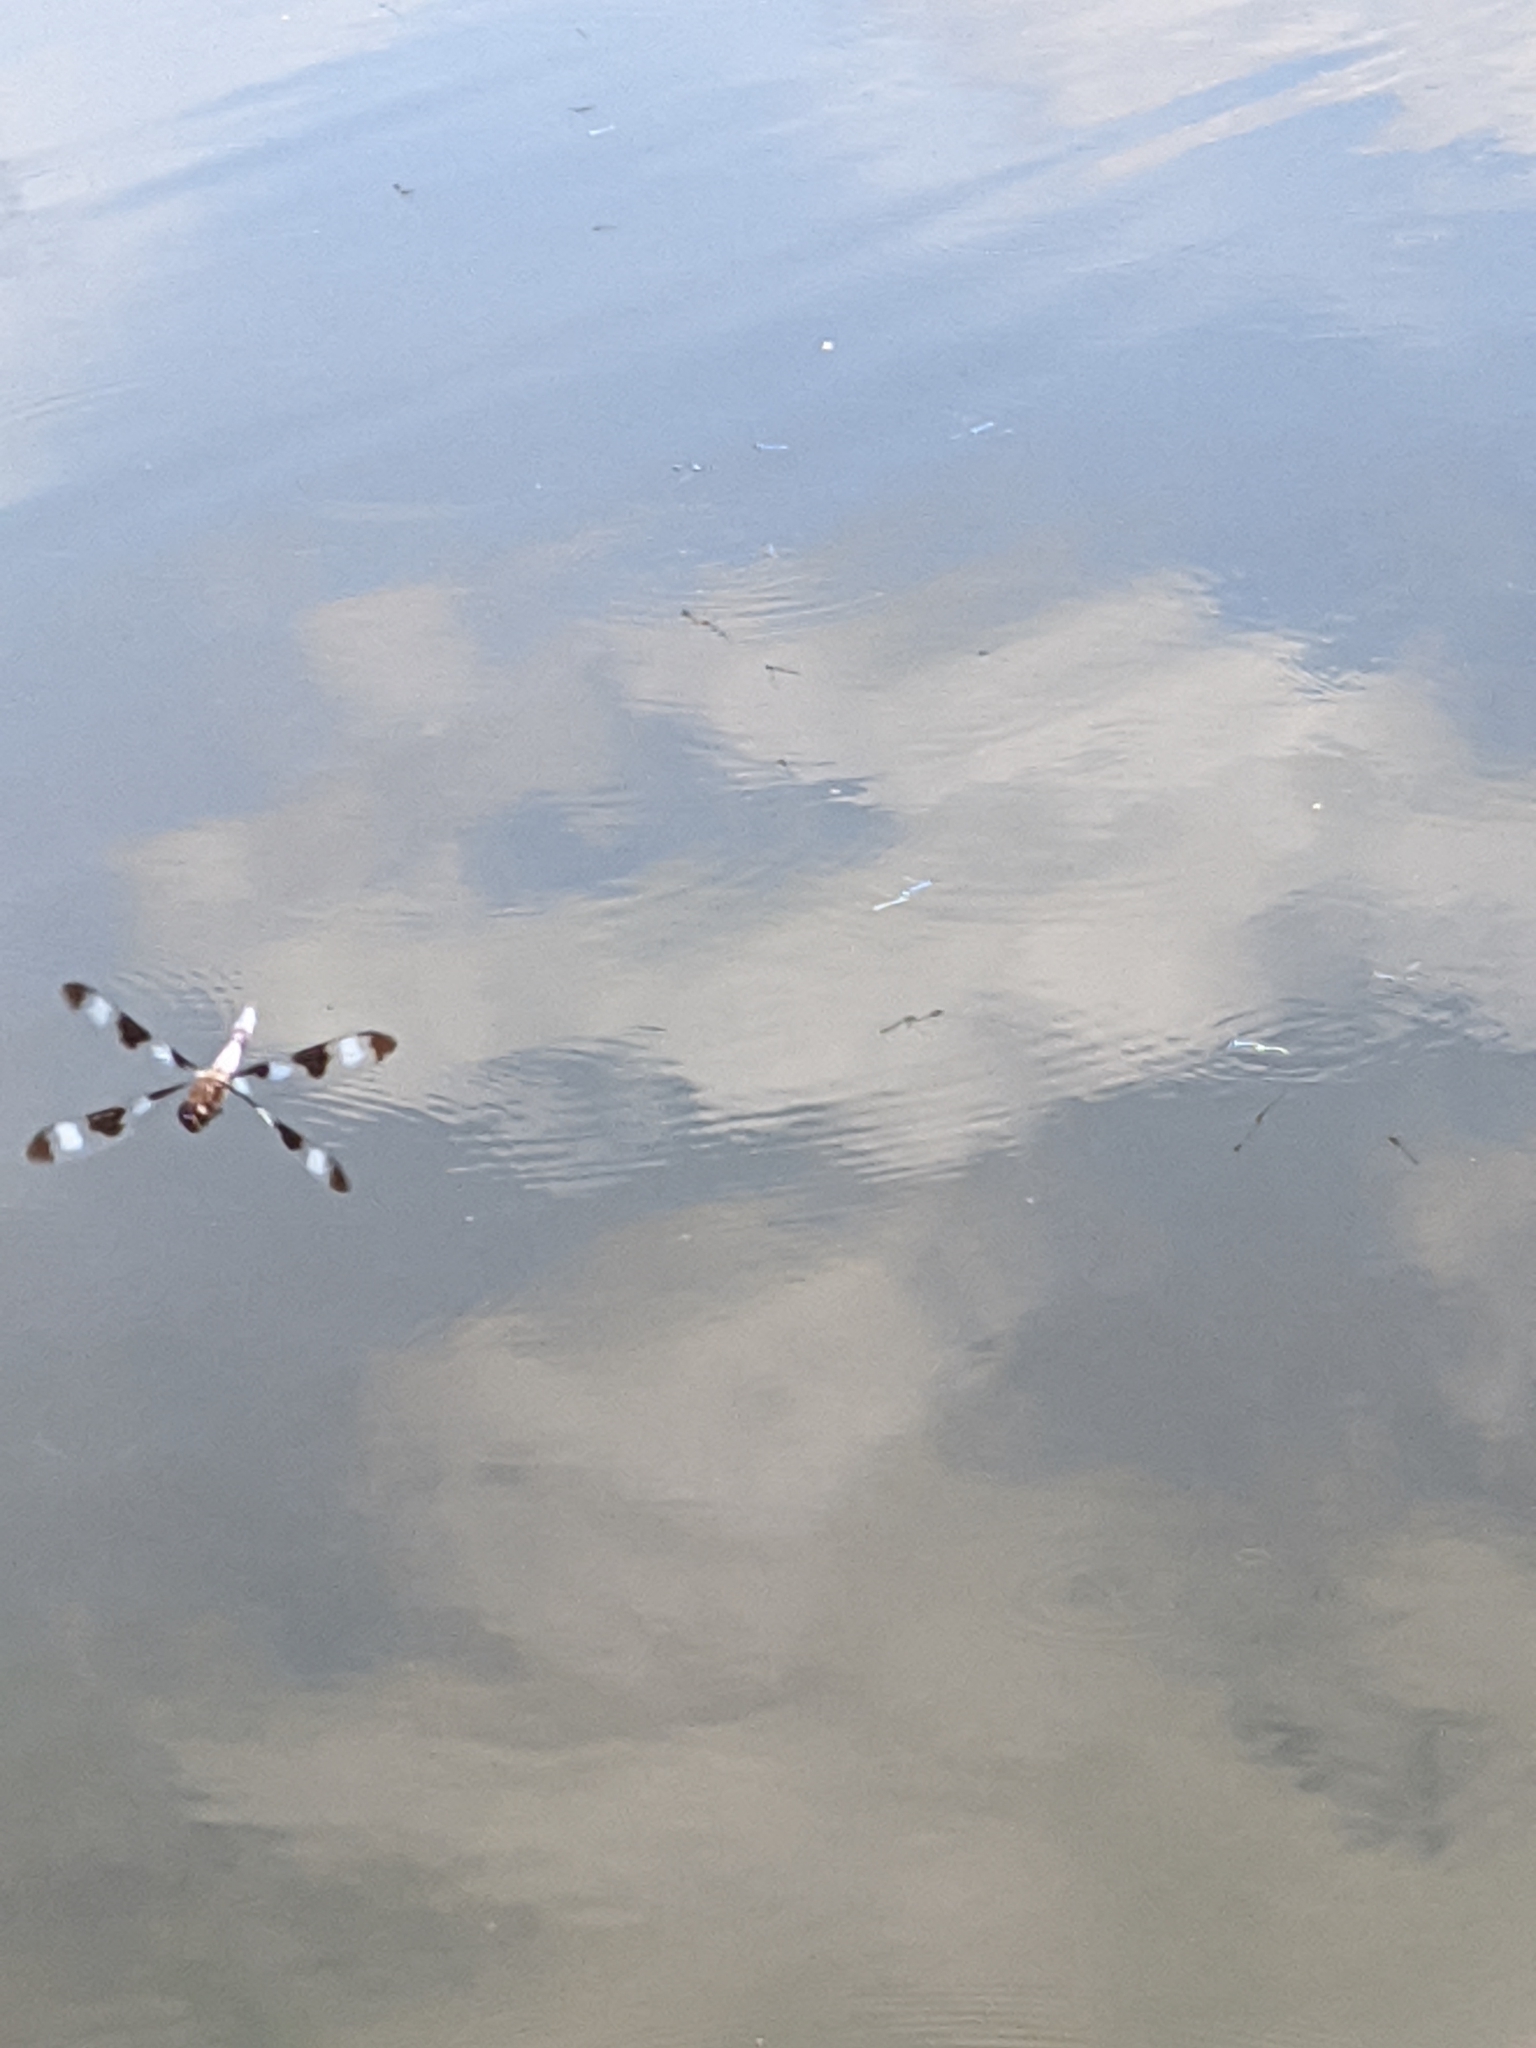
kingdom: Animalia
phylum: Arthropoda
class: Insecta
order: Odonata
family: Libellulidae
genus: Libellula
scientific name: Libellula pulchella
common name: Twelve-spotted skimmer
